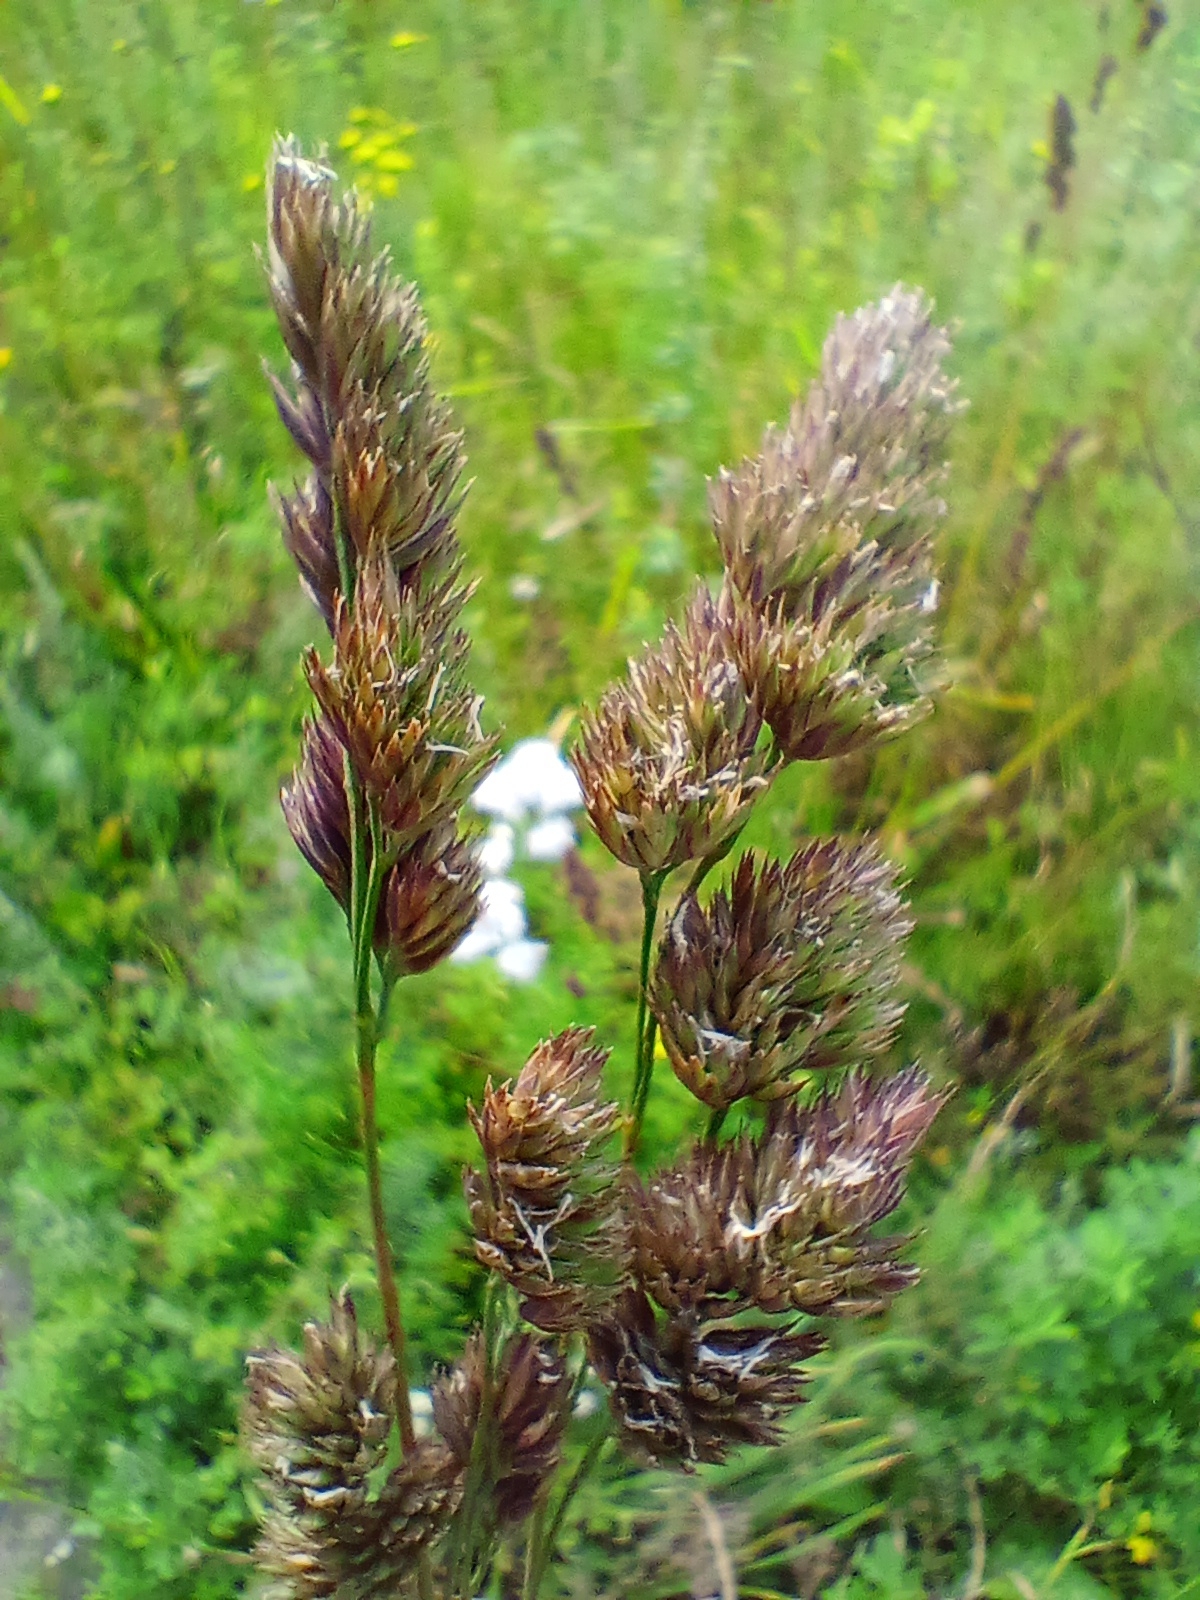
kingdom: Plantae
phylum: Tracheophyta
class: Liliopsida
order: Poales
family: Poaceae
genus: Dactylis
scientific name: Dactylis glomerata
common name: Orchardgrass
